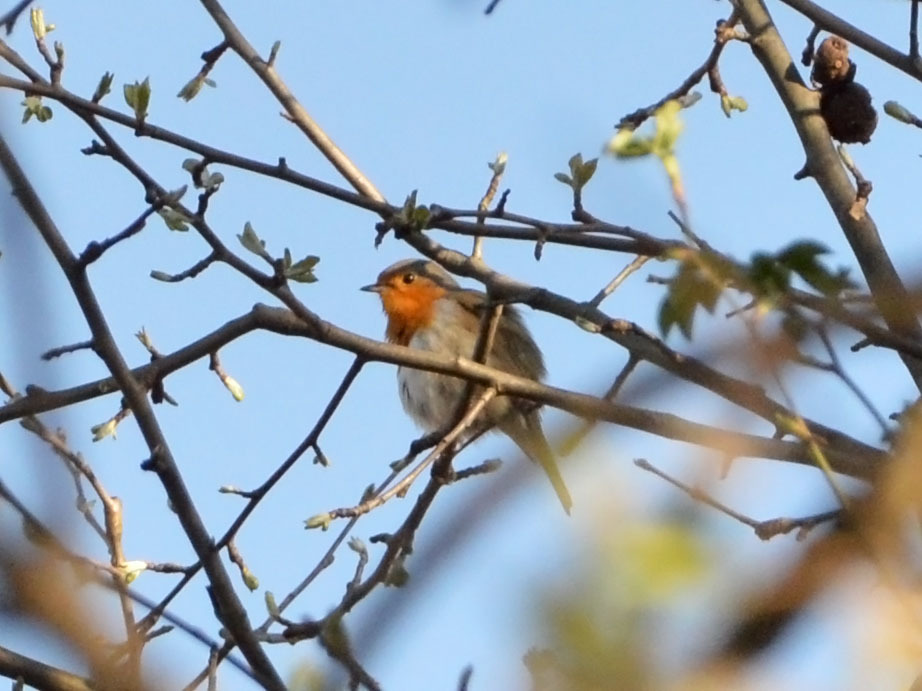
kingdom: Animalia
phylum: Chordata
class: Aves
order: Passeriformes
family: Muscicapidae
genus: Erithacus
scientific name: Erithacus rubecula
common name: European robin
